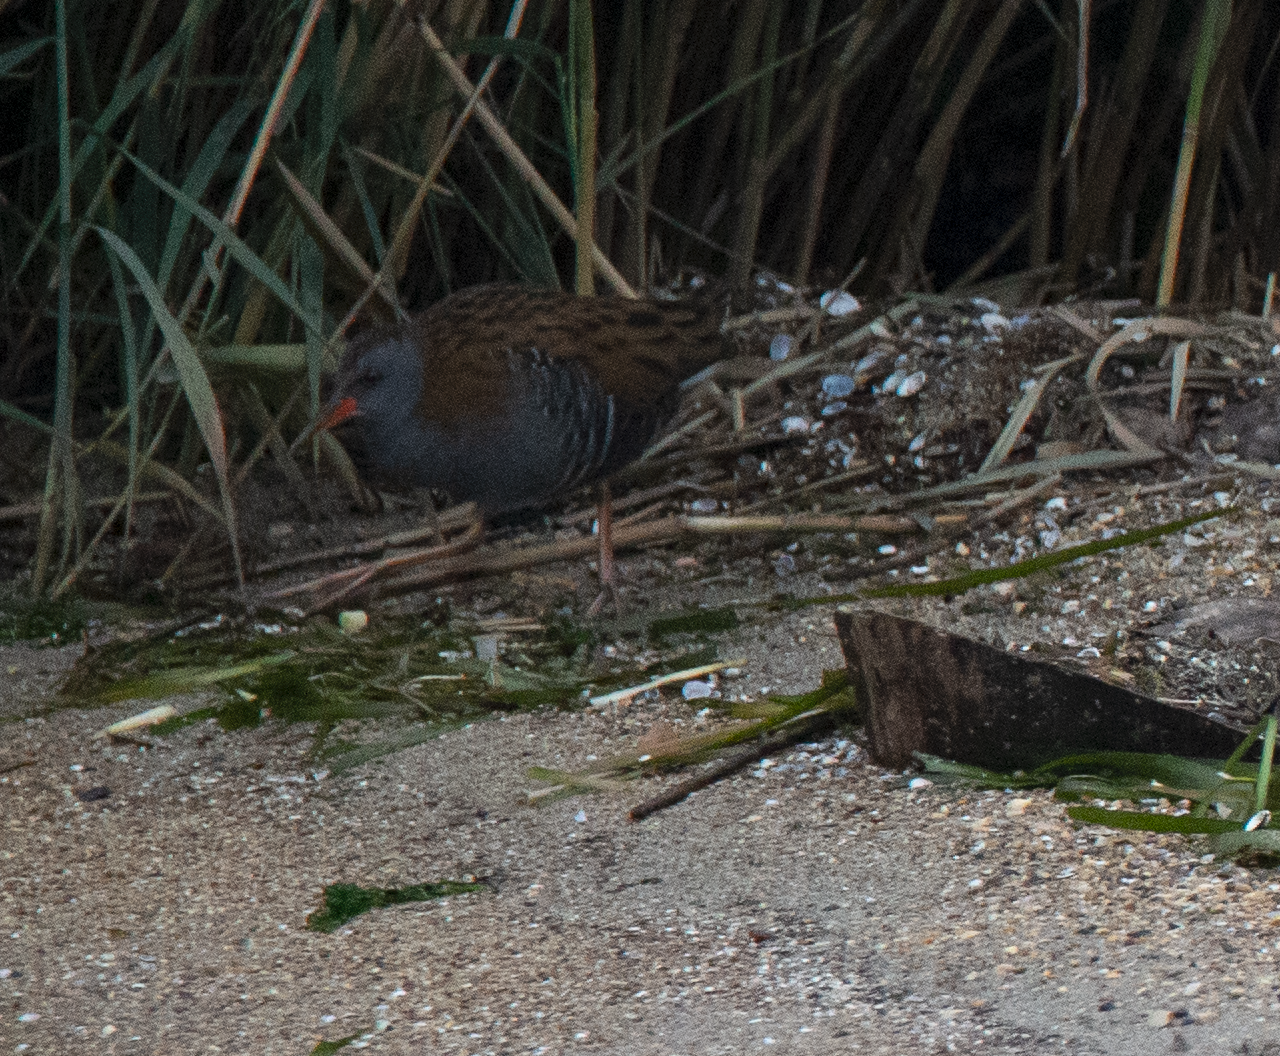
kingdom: Animalia
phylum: Chordata
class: Aves
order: Gruiformes
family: Rallidae
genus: Rallus
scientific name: Rallus aquaticus
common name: Water rail
